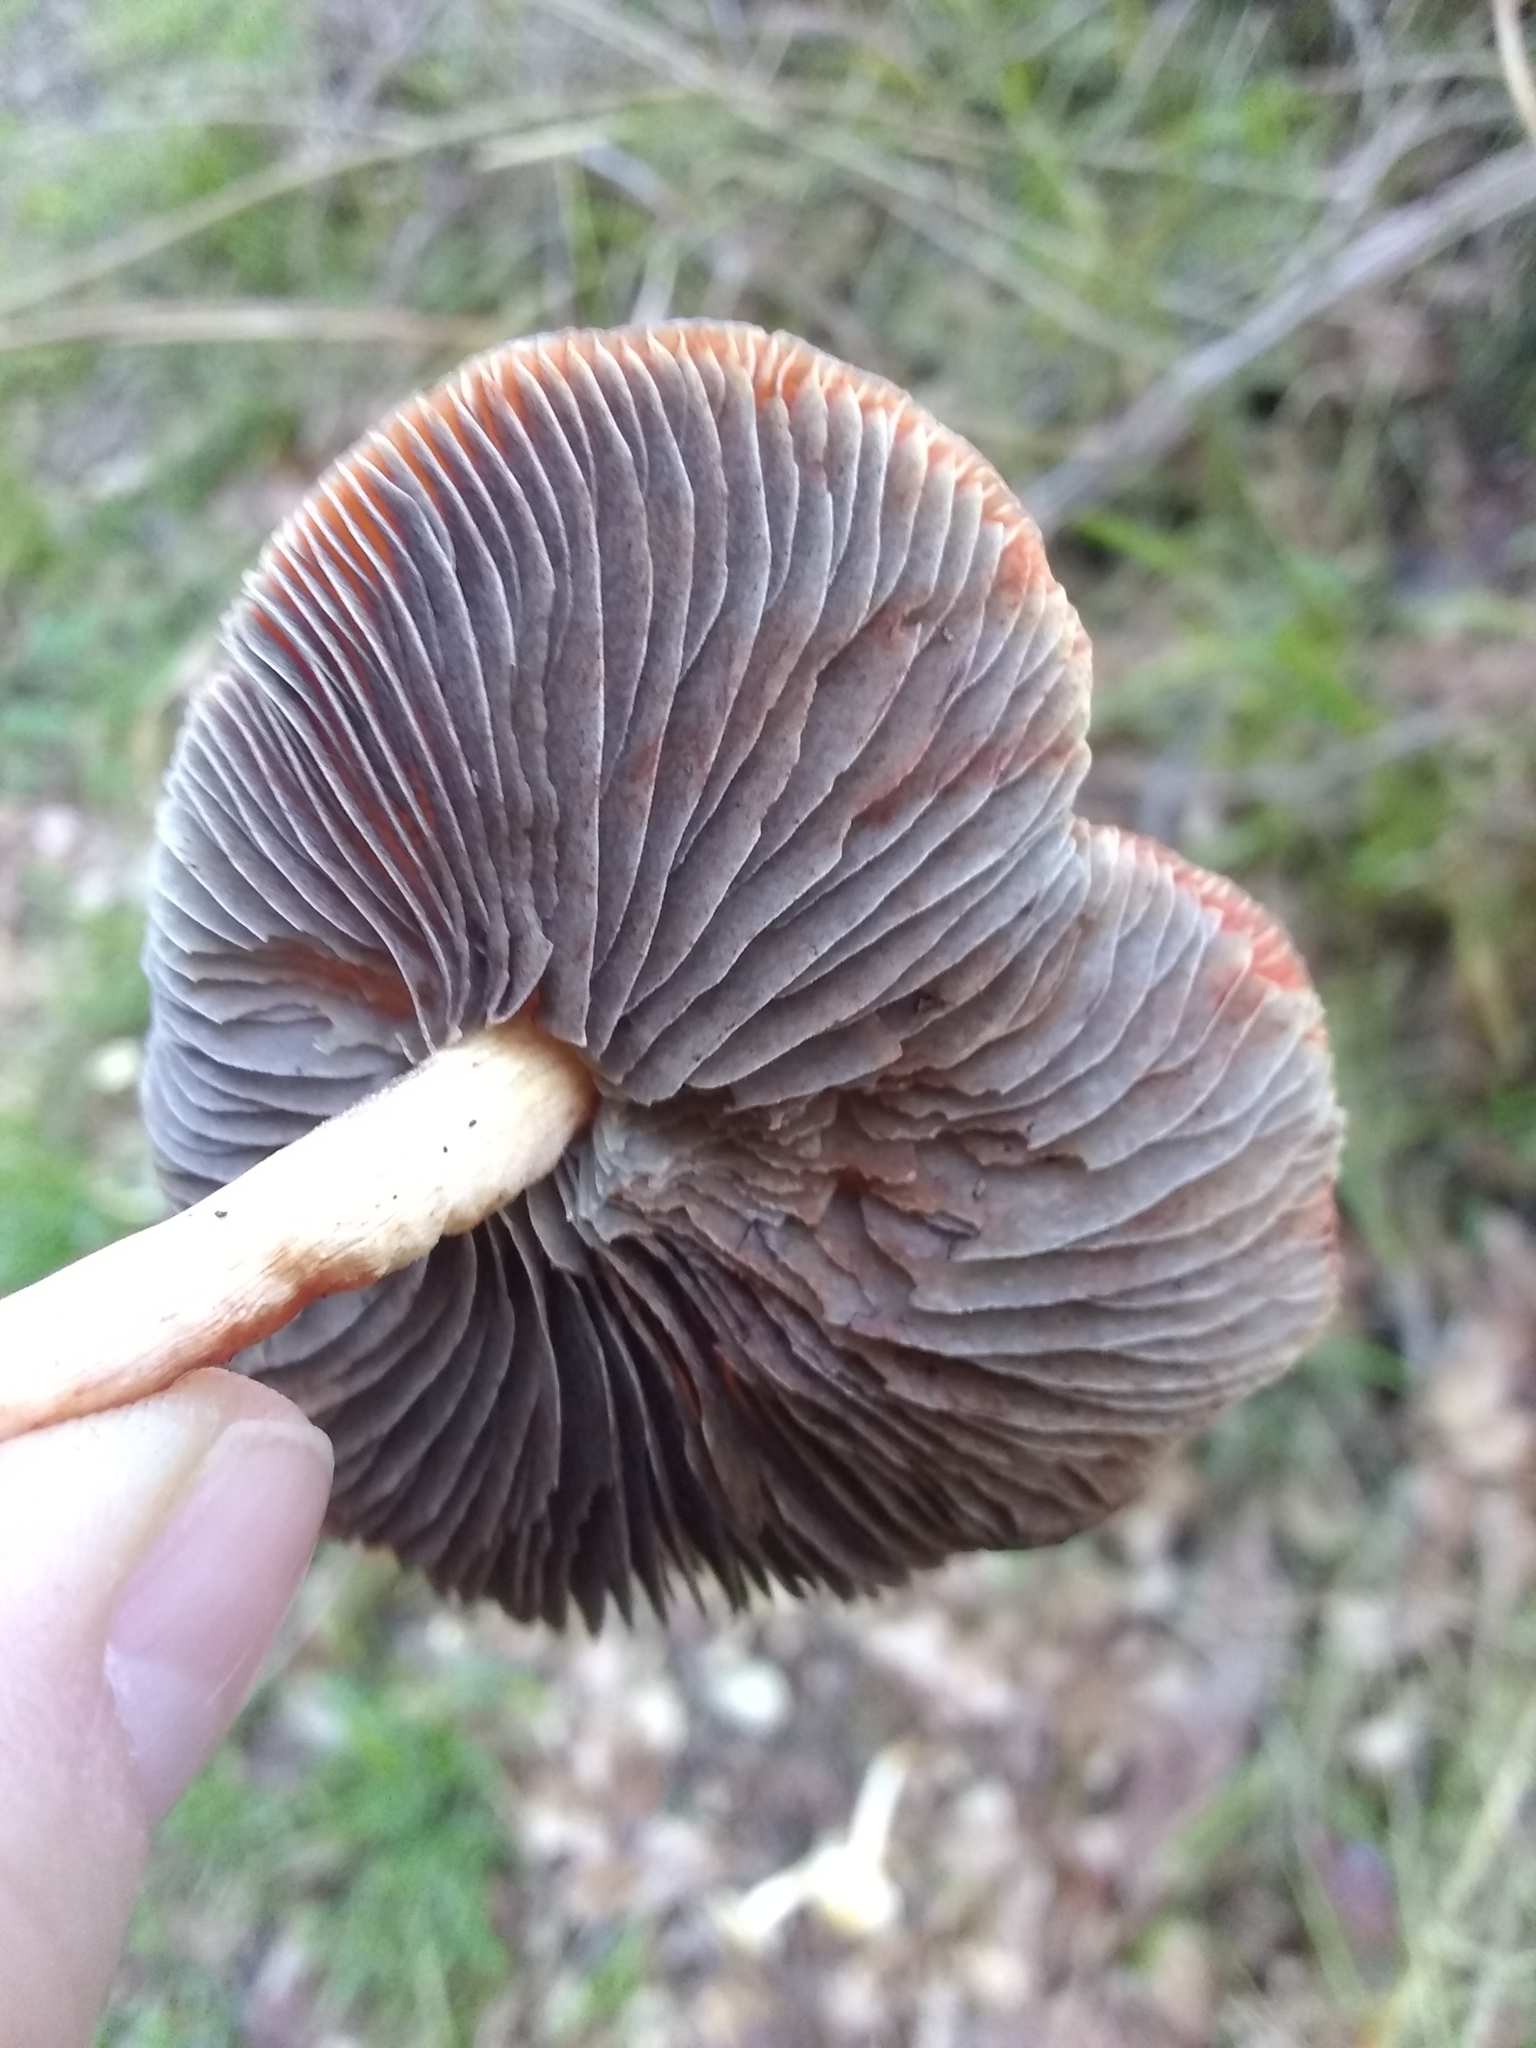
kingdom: Fungi
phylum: Basidiomycota
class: Agaricomycetes
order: Agaricales
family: Strophariaceae
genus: Leratiomyces
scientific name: Leratiomyces ceres
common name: Redlead roundhead
